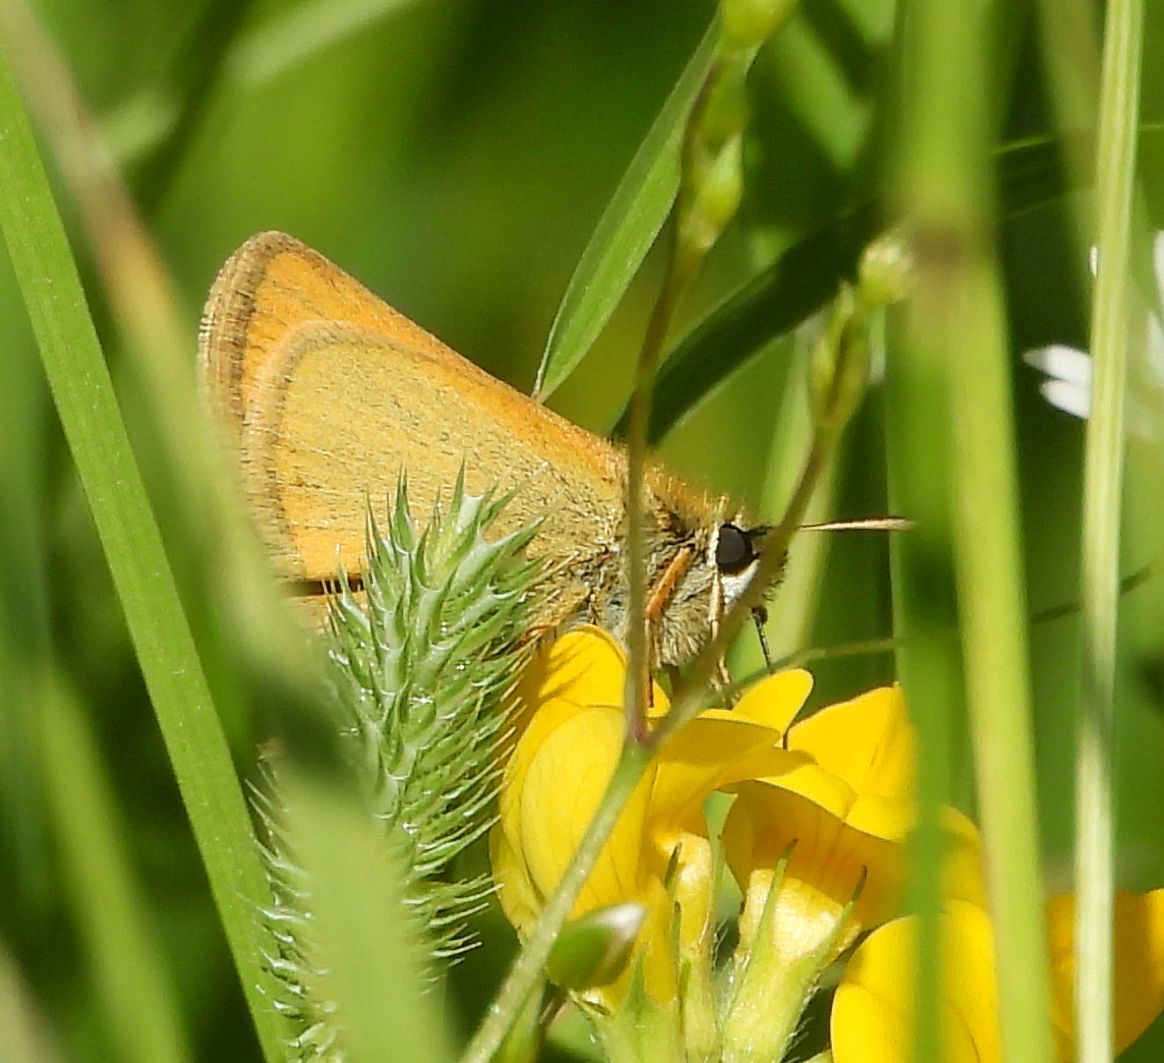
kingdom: Animalia
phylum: Arthropoda
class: Insecta
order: Lepidoptera
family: Hesperiidae
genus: Thymelicus
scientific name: Thymelicus lineola
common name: Essex skipper
